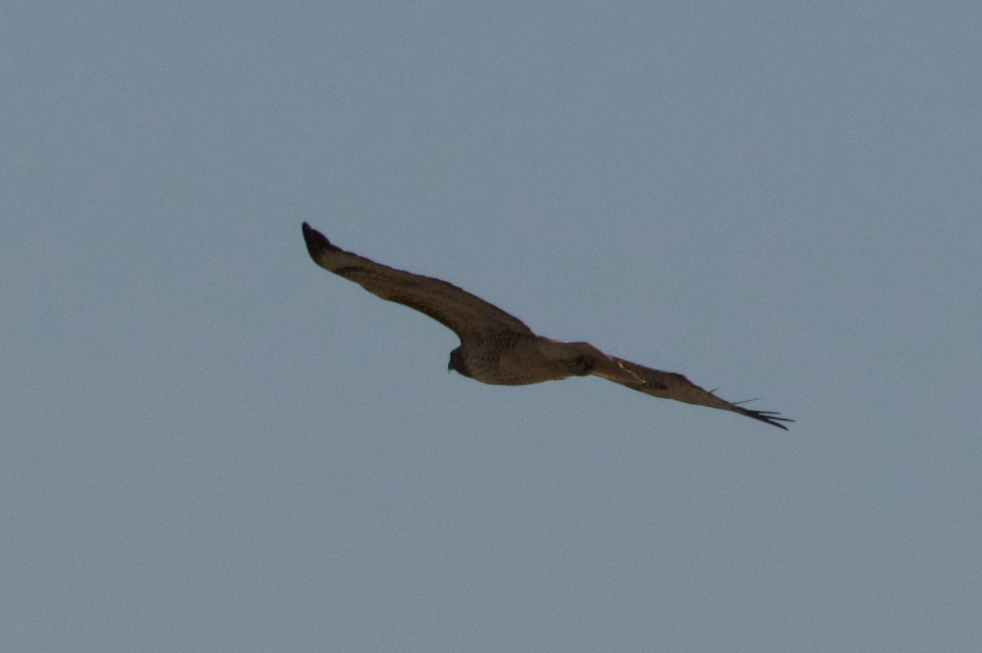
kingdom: Animalia
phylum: Chordata
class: Aves
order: Accipitriformes
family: Accipitridae
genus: Buteo
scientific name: Buteo jamaicensis
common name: Red-tailed hawk
